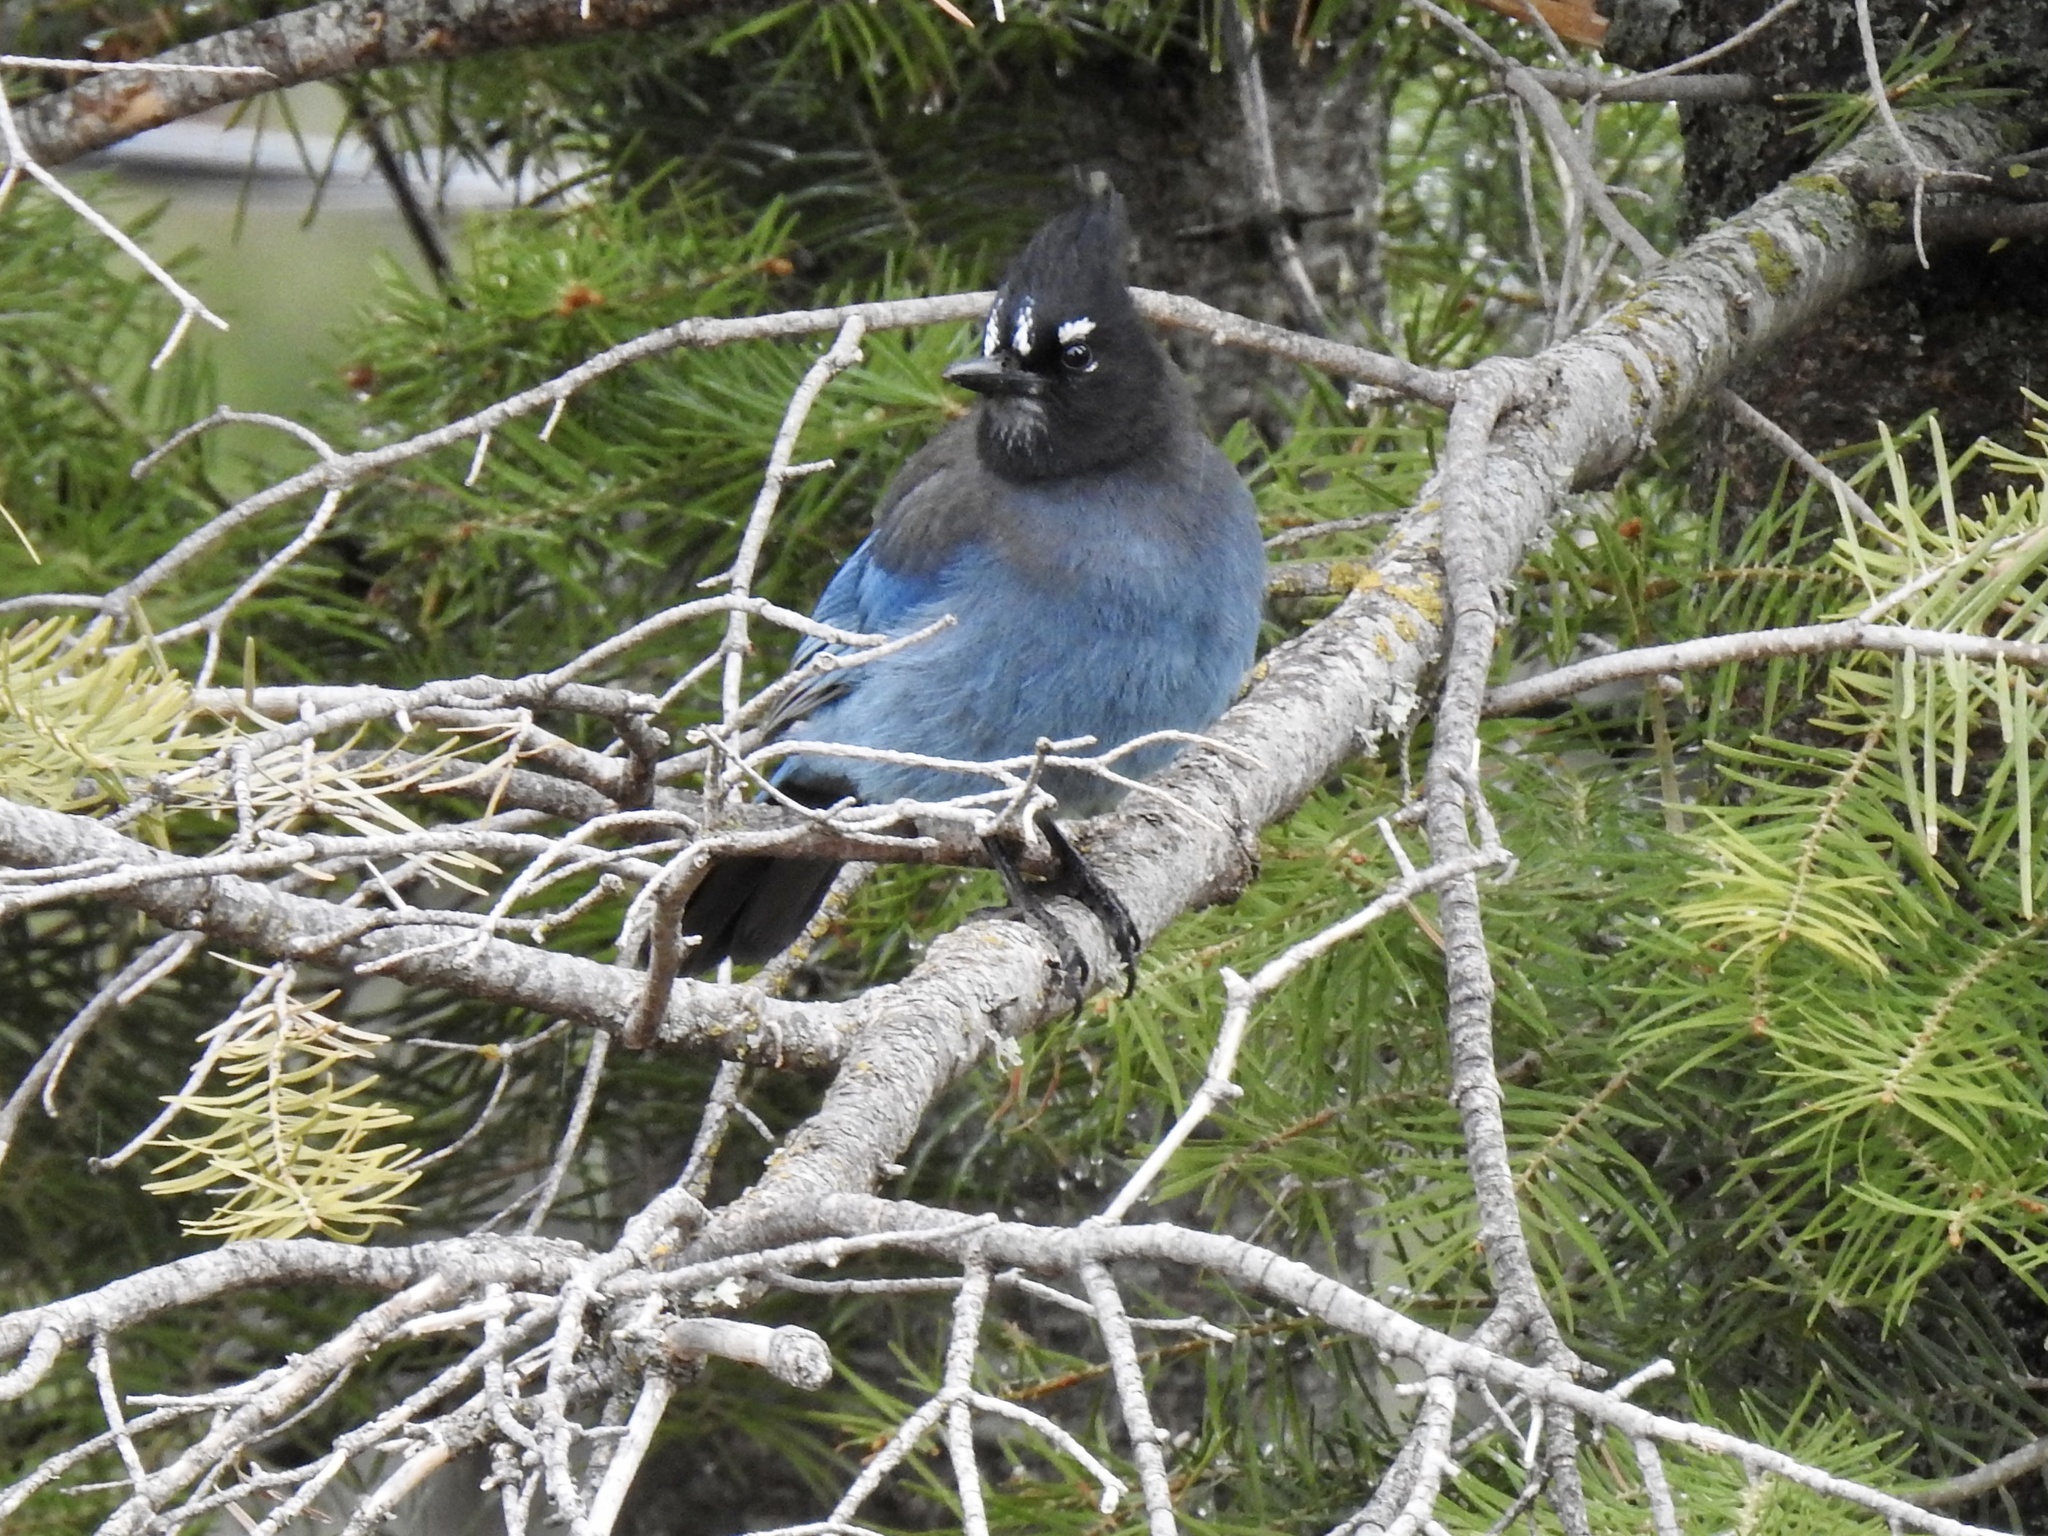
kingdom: Animalia
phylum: Chordata
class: Aves
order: Passeriformes
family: Corvidae
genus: Cyanocitta
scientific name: Cyanocitta stelleri
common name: Steller's jay
